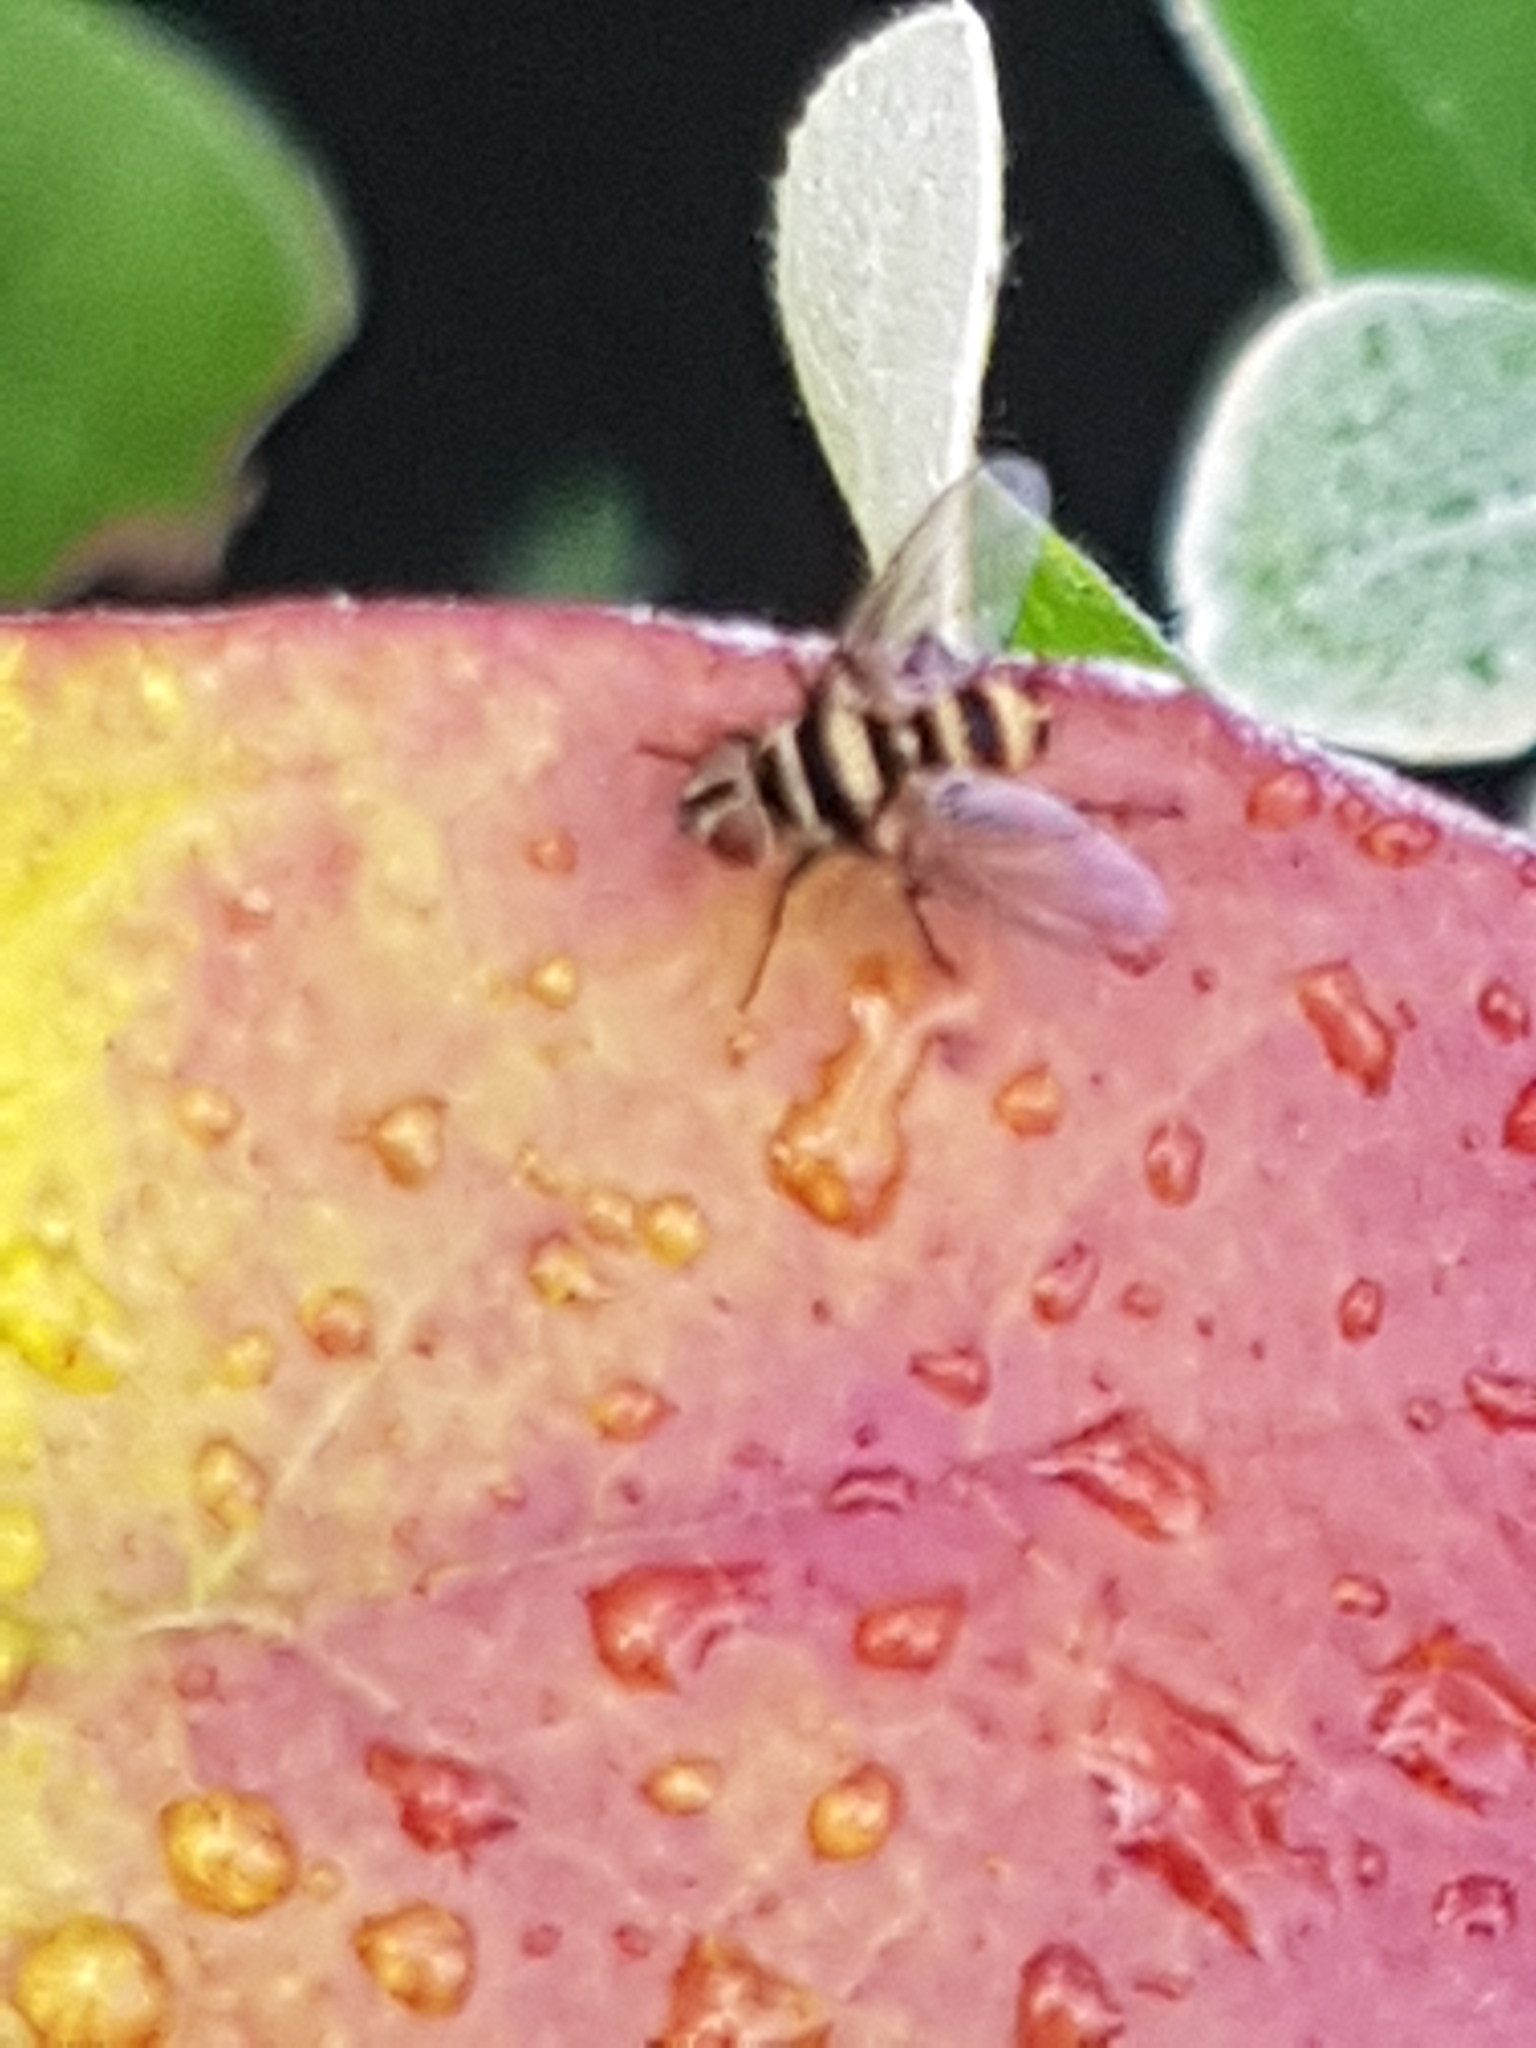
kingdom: Animalia
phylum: Arthropoda
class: Insecta
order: Diptera
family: Tachinidae
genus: Trigonospila
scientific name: Trigonospila brevifacies
